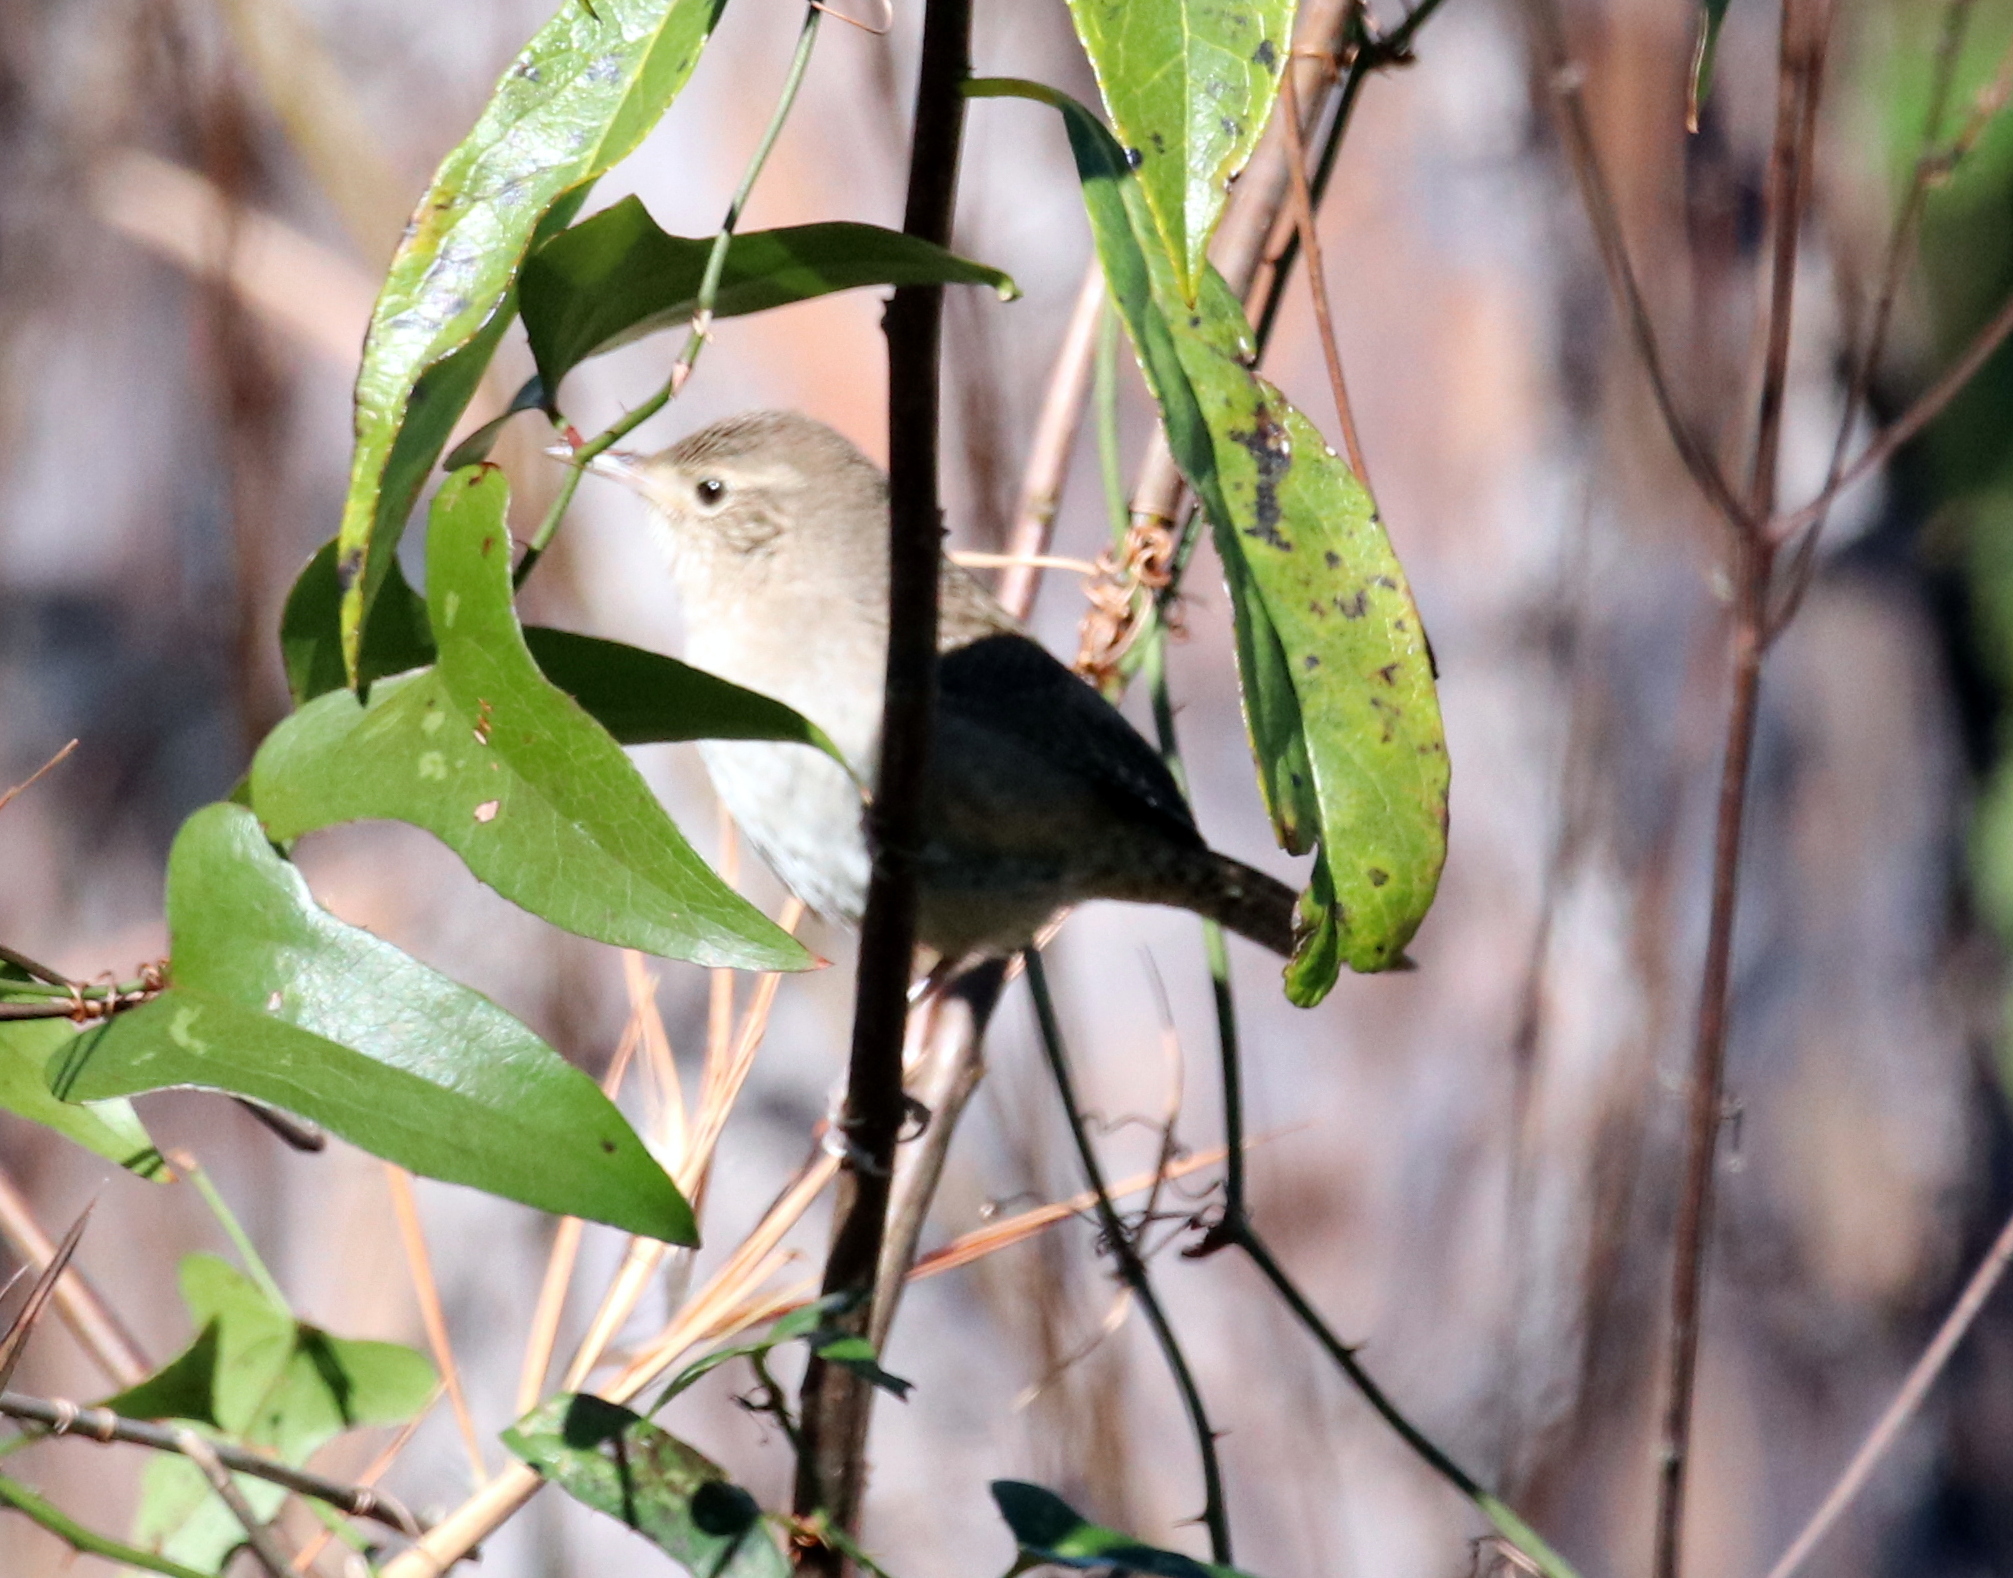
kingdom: Animalia
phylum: Chordata
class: Aves
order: Passeriformes
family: Troglodytidae
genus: Troglodytes
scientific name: Troglodytes aedon
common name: House wren
